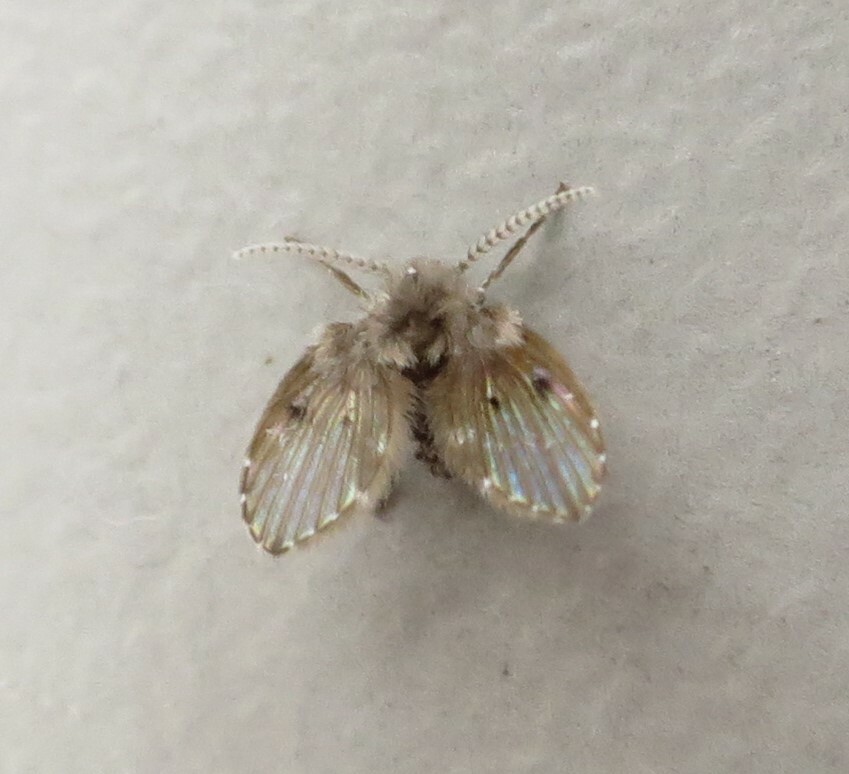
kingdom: Animalia
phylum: Arthropoda
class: Insecta
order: Diptera
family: Psychodidae
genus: Clogmia
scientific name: Clogmia albipunctatus
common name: White-spotted moth fly
